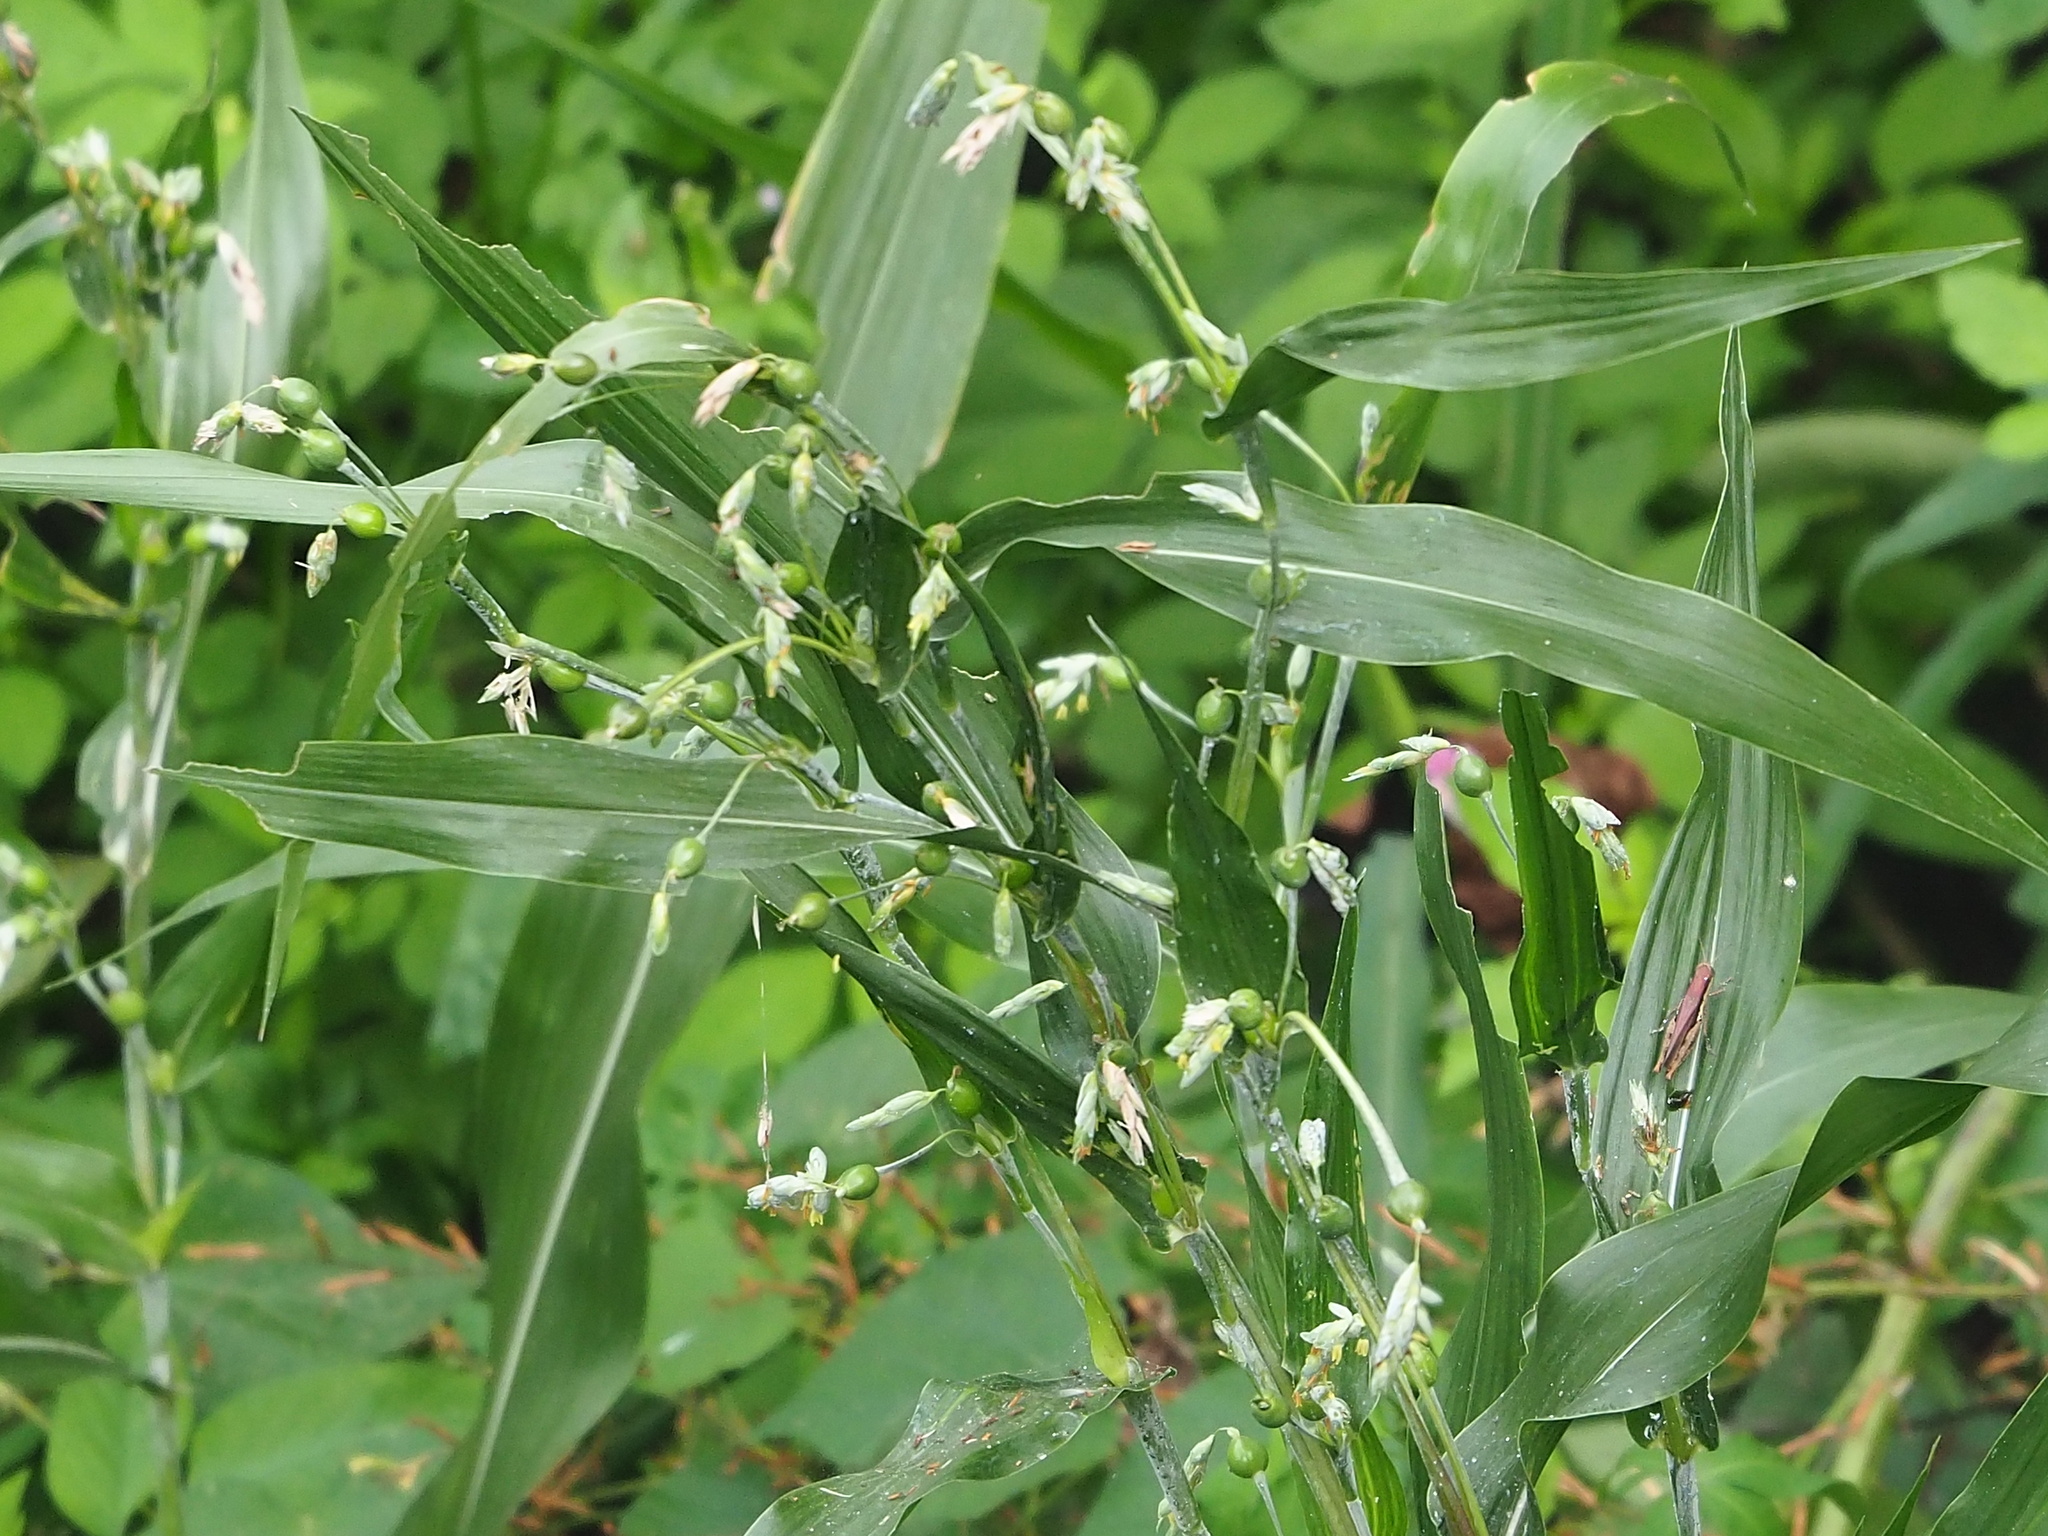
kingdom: Plantae
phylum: Tracheophyta
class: Liliopsida
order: Poales
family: Poaceae
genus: Coix
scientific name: Coix lacryma-jobi
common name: Job's tears
